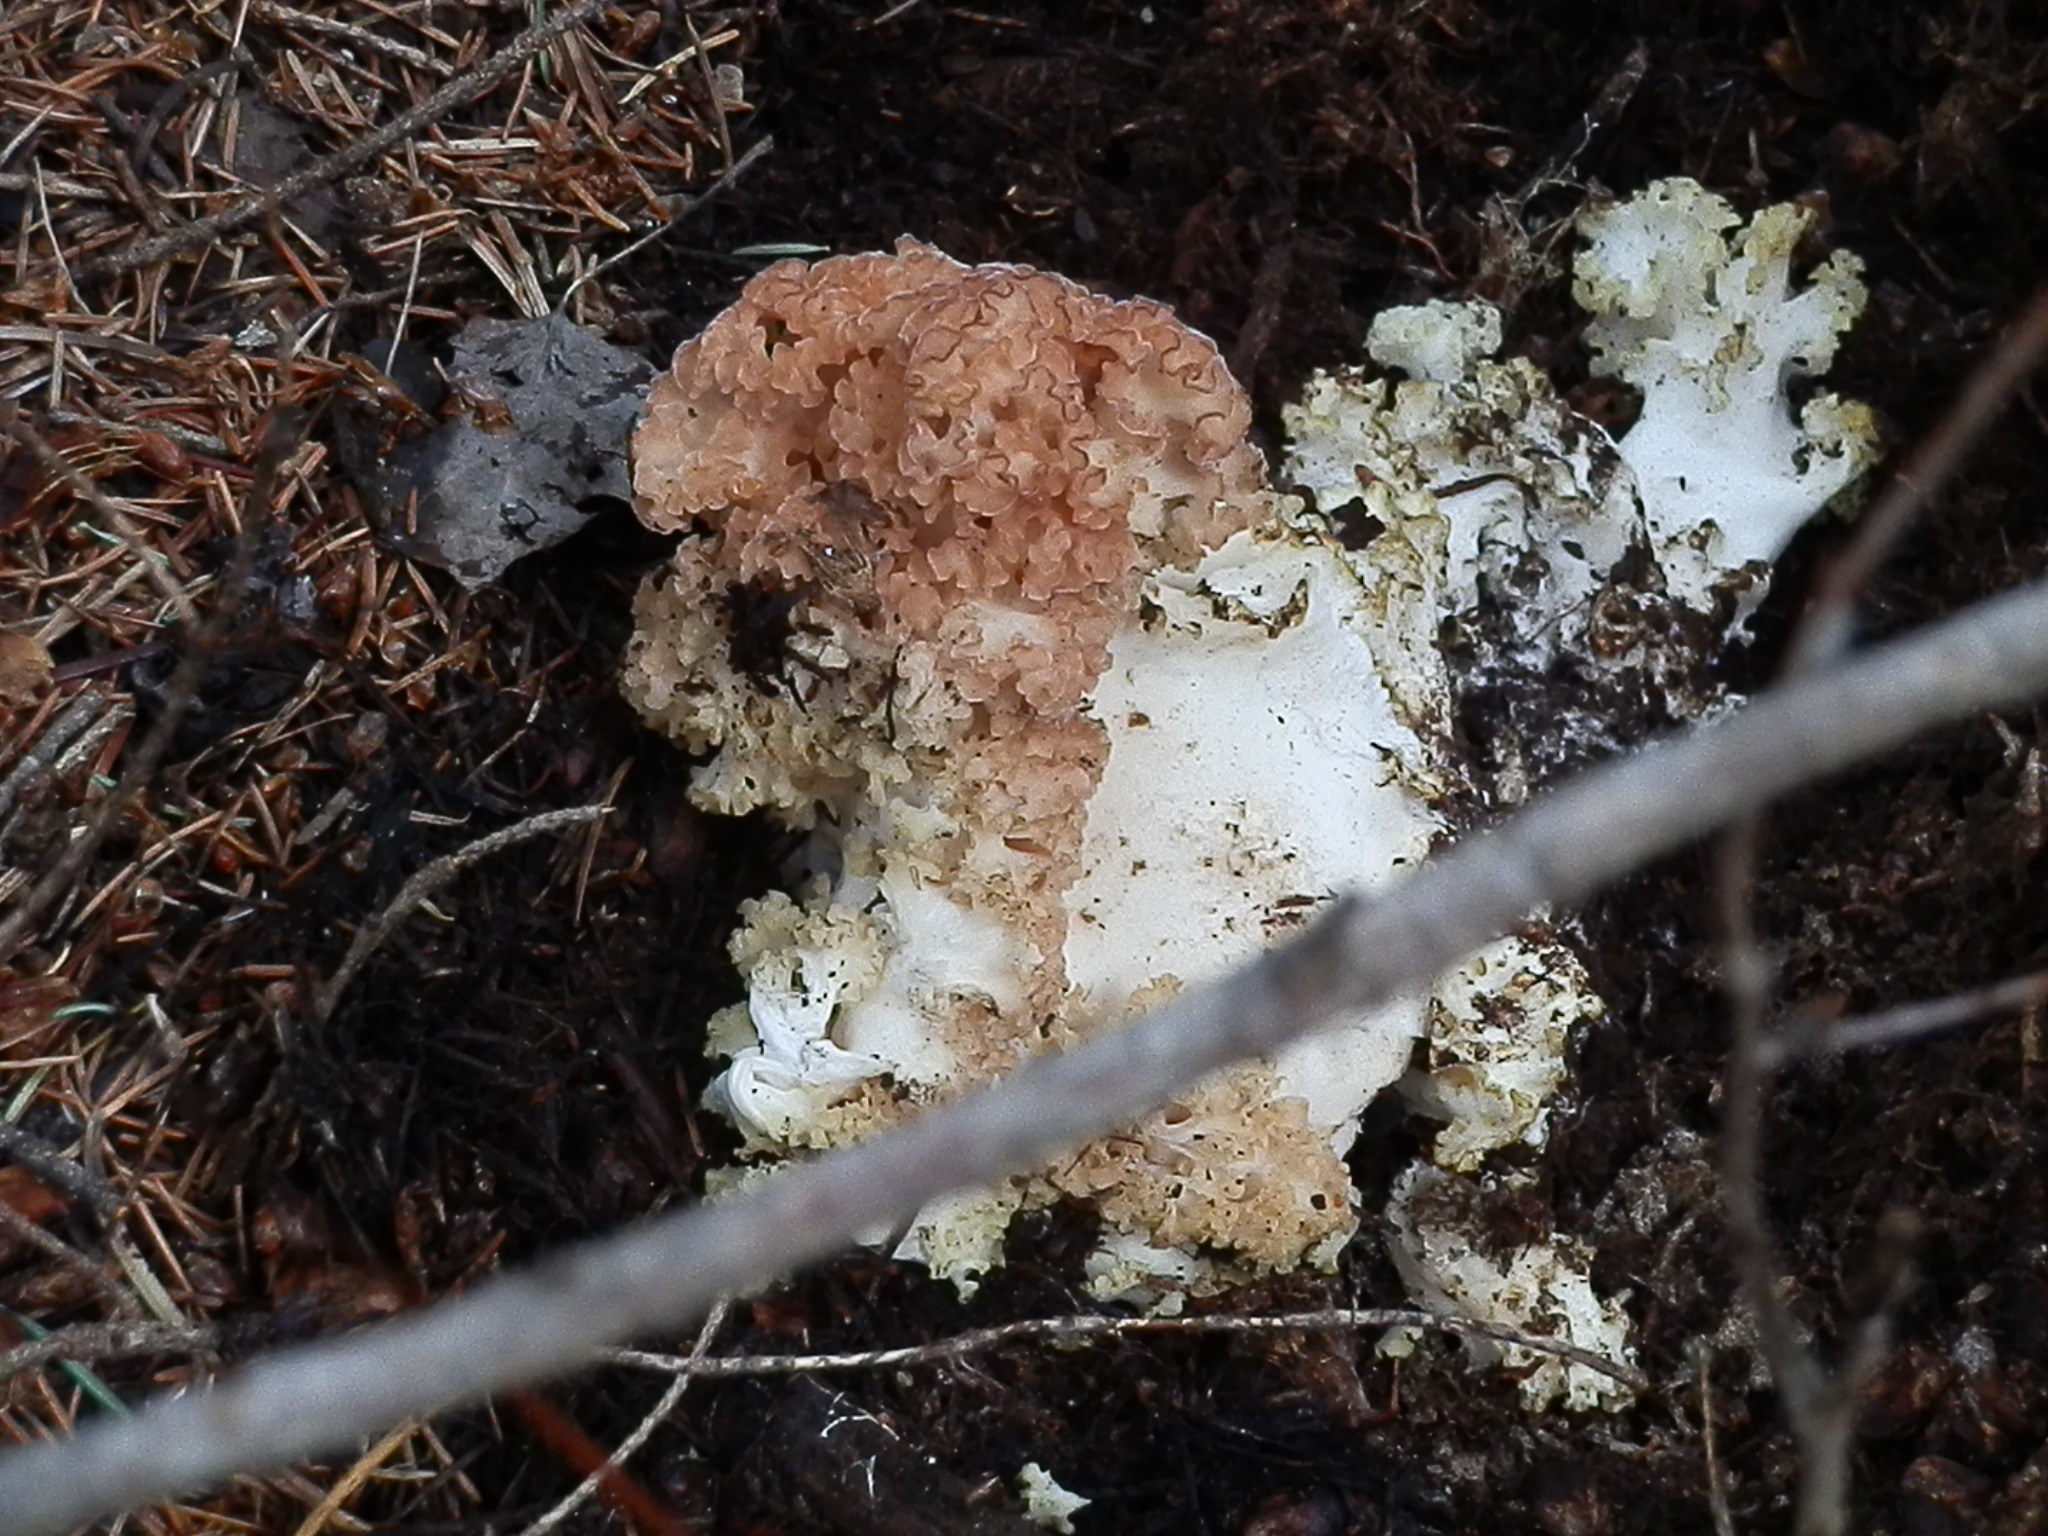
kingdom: Fungi
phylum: Basidiomycota
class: Agaricomycetes
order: Polyporales
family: Sparassidaceae
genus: Sparassis
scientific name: Sparassis americana
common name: American cauliflower mushroom
